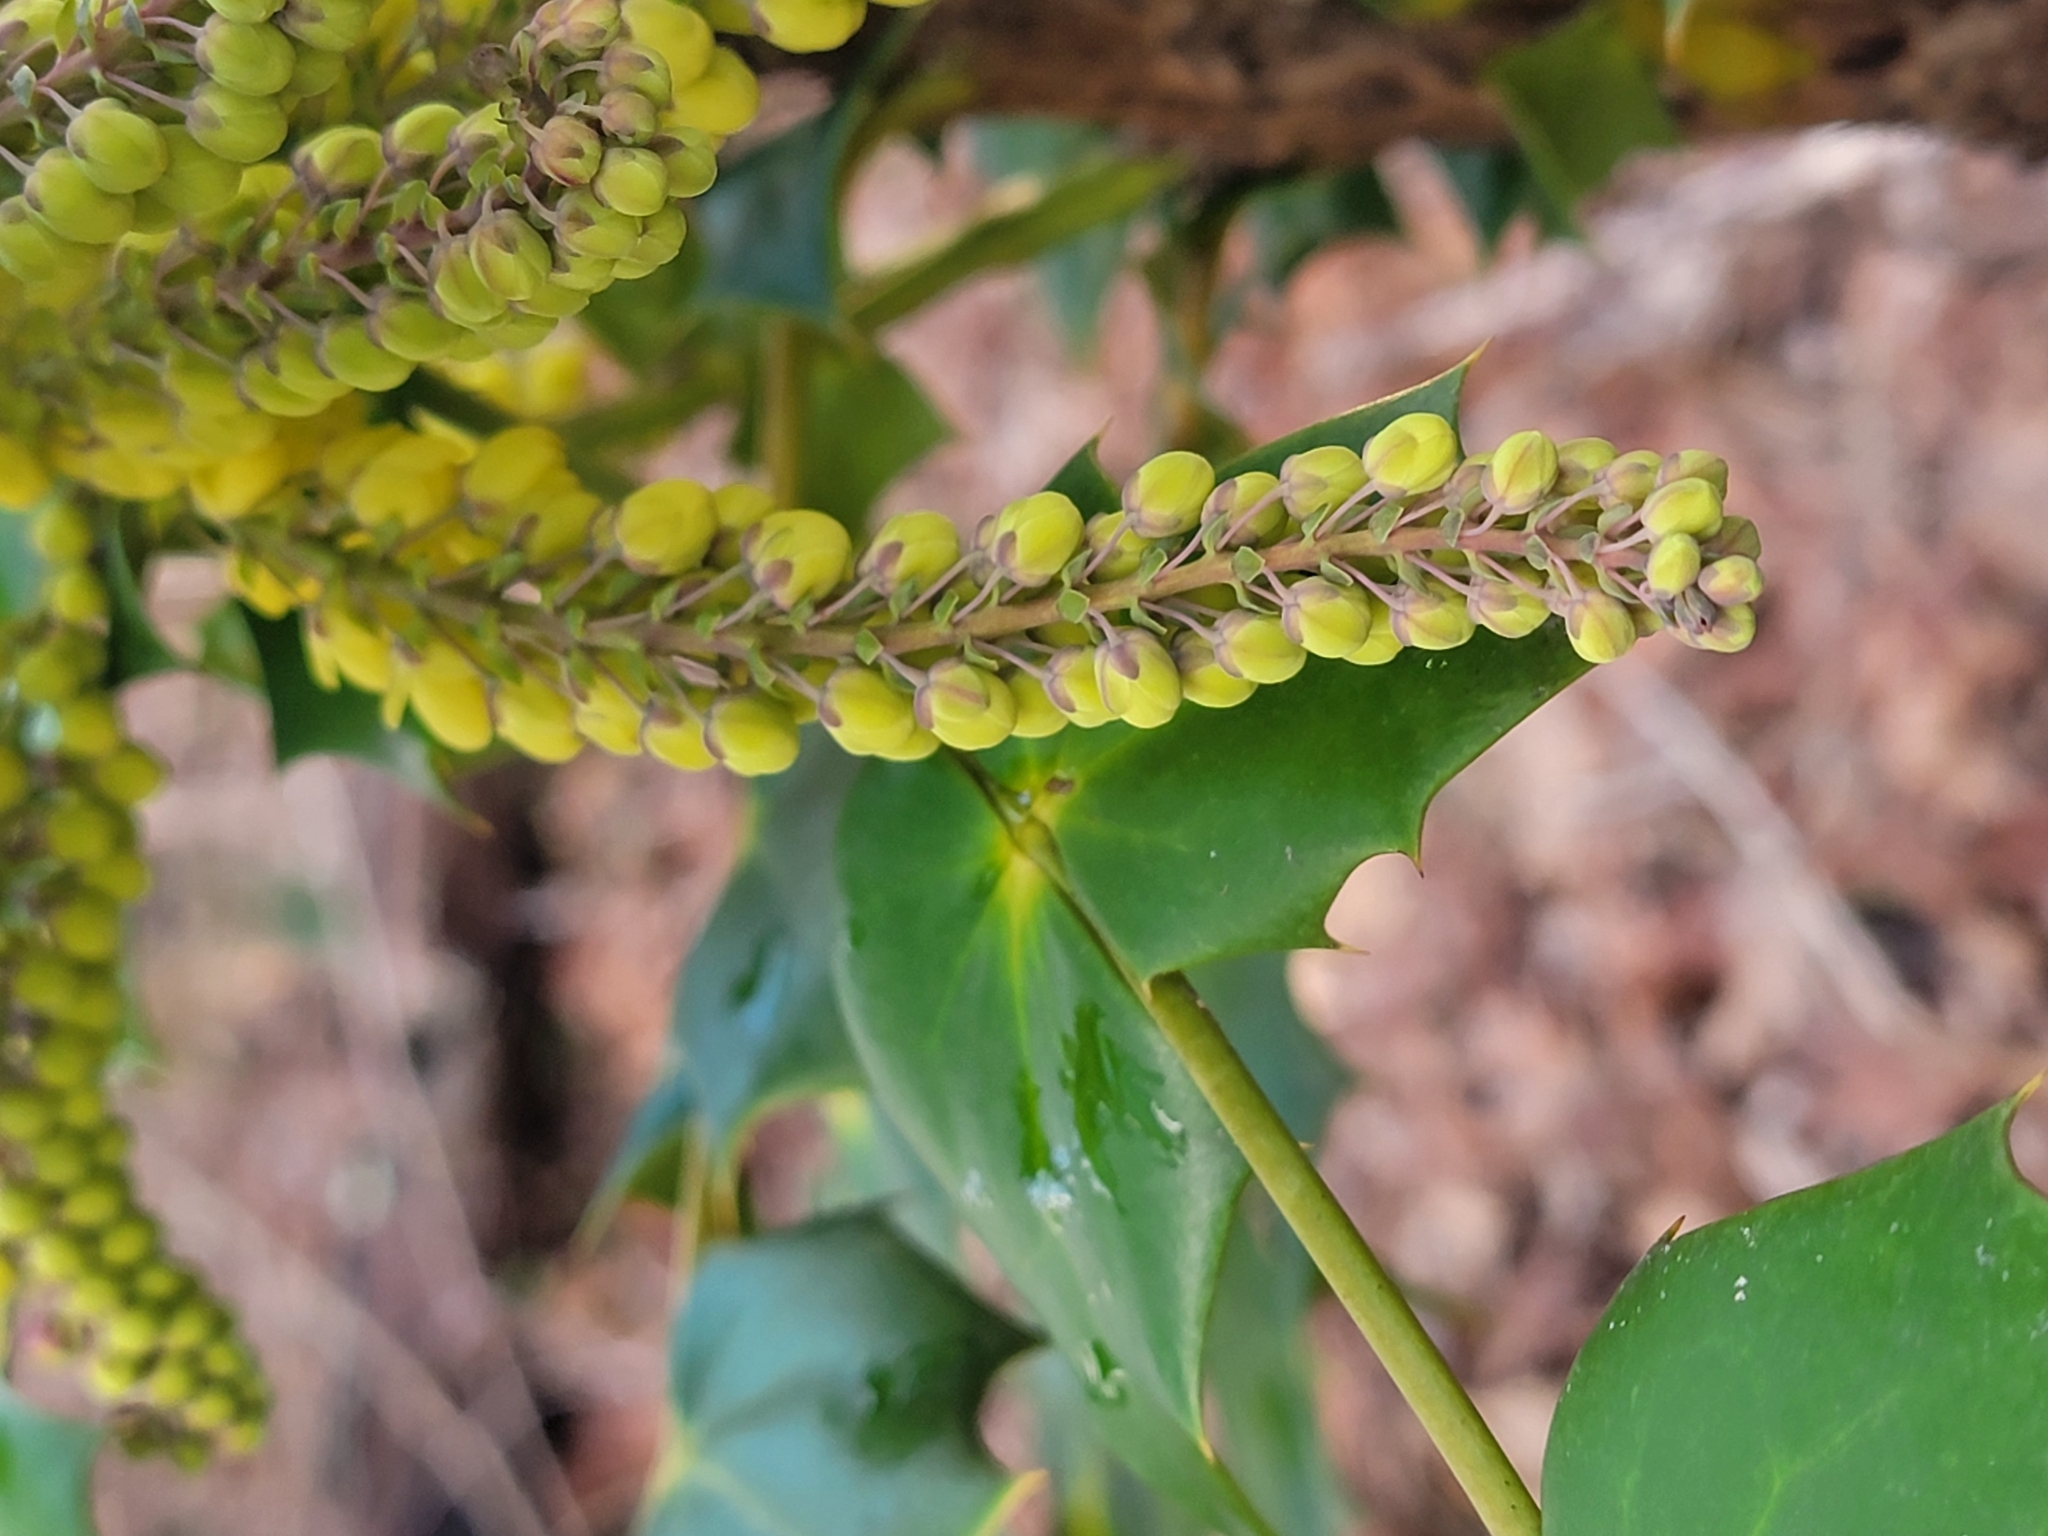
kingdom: Plantae
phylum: Tracheophyta
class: Magnoliopsida
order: Ranunculales
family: Berberidaceae
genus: Mahonia
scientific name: Mahonia bealei
